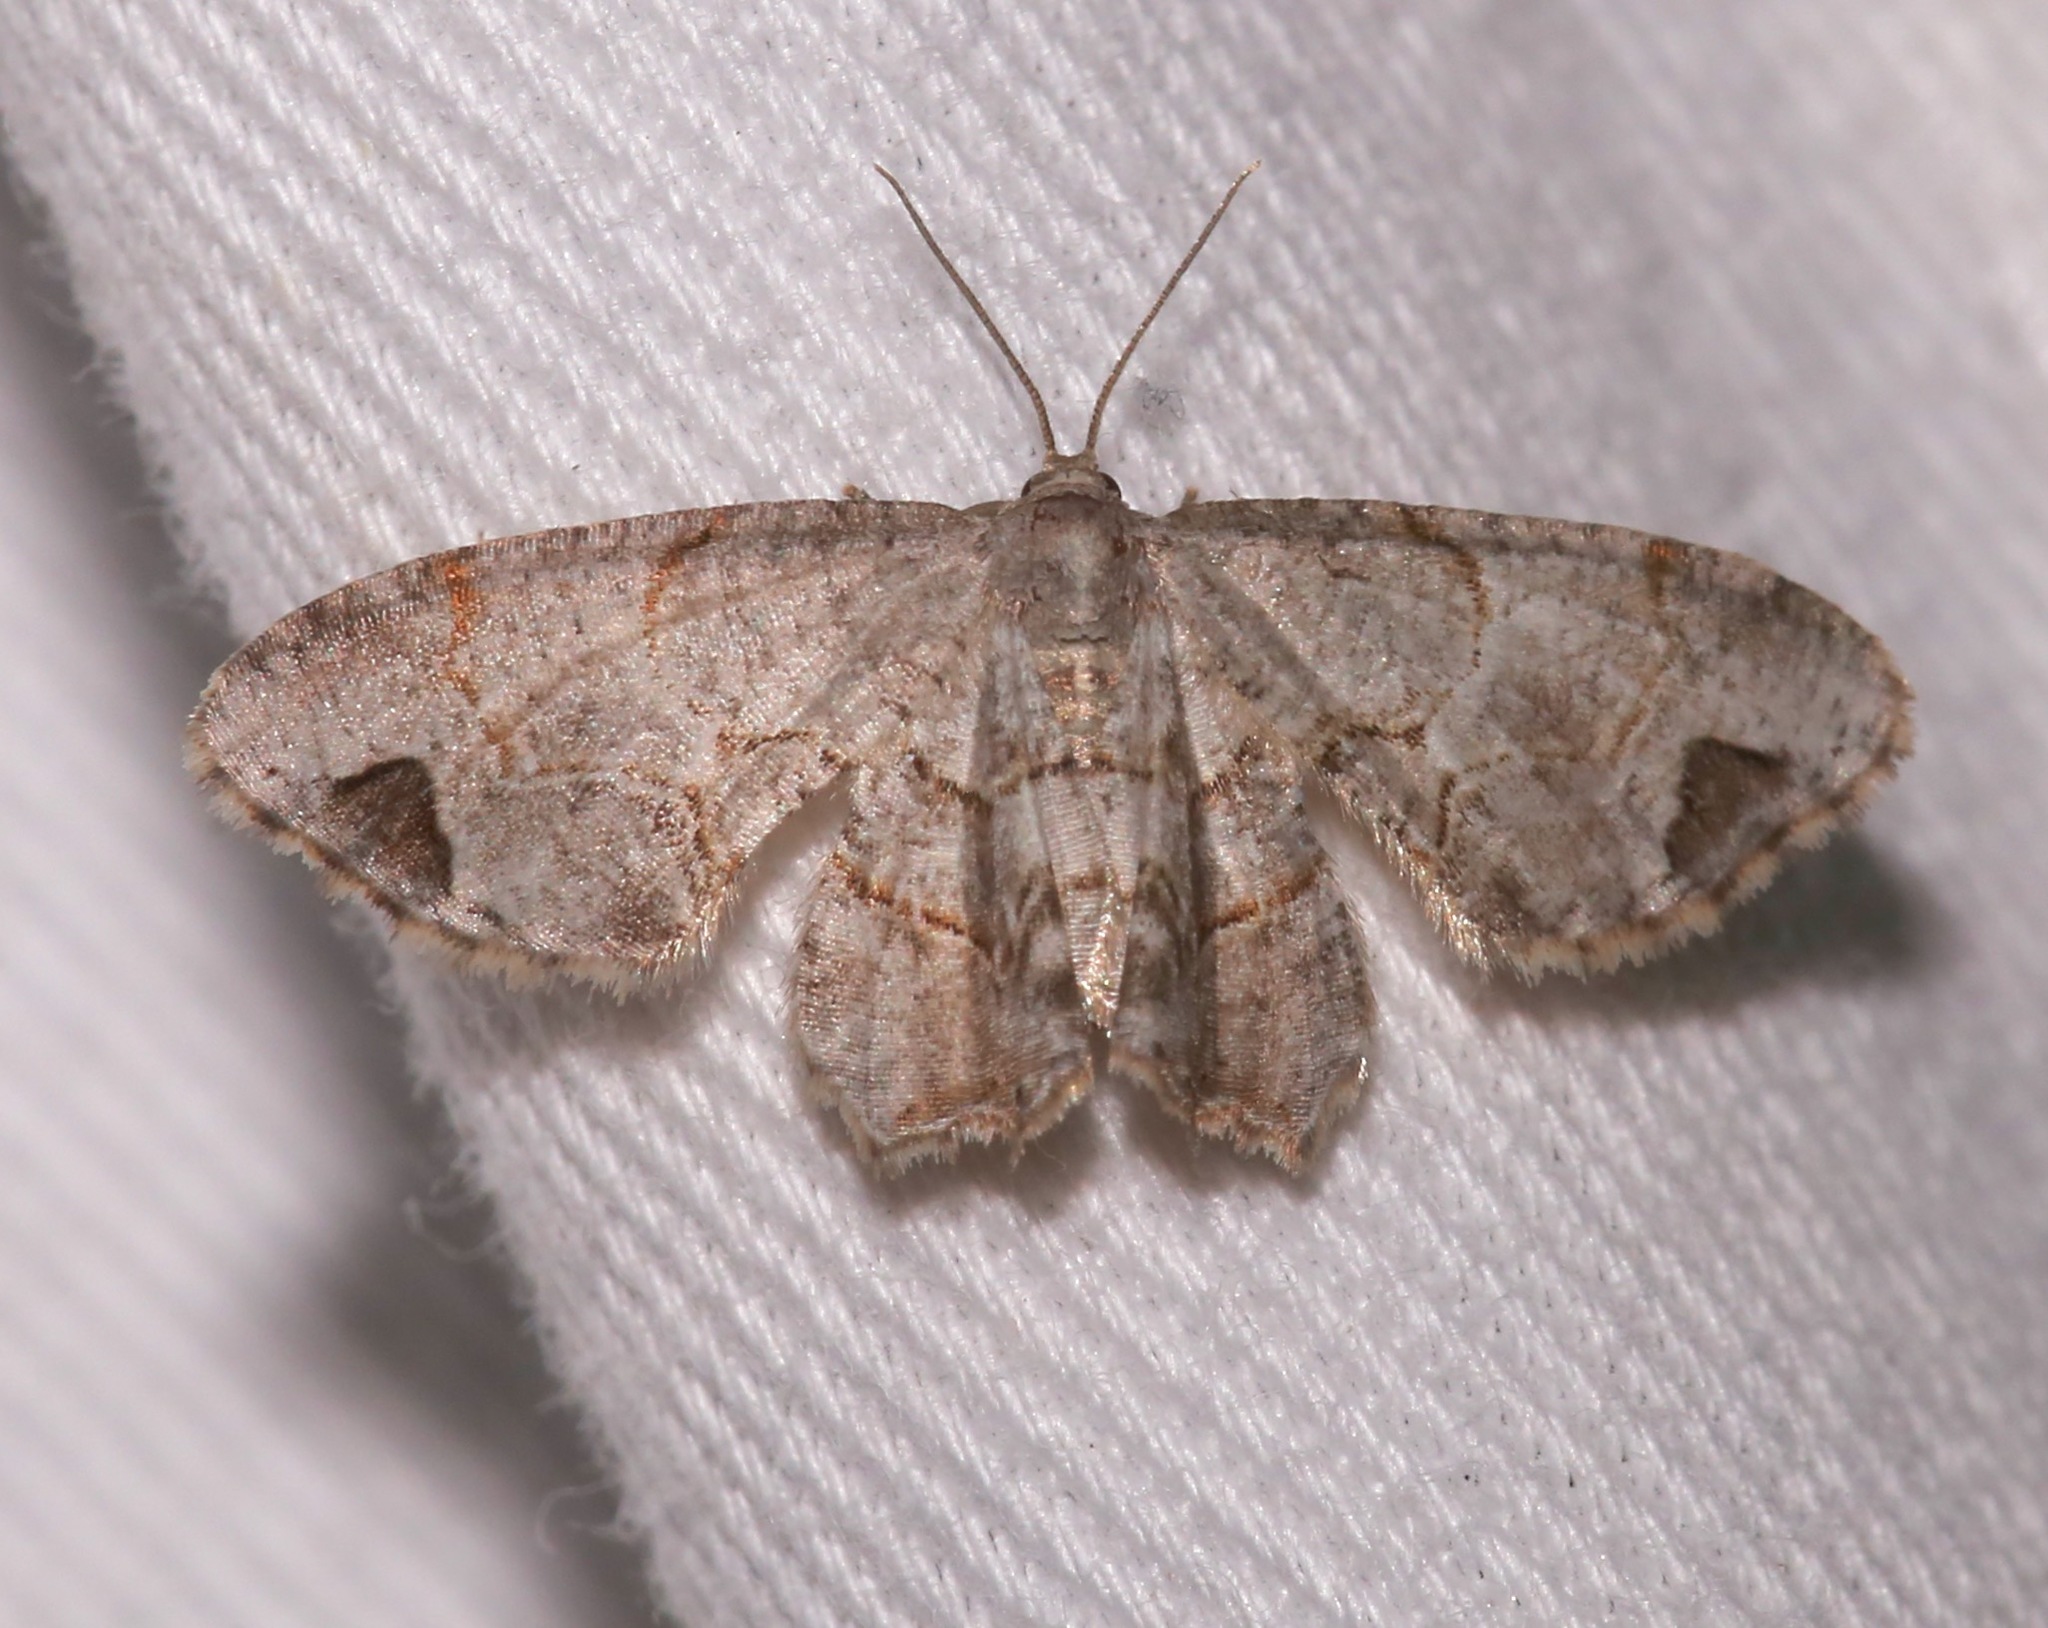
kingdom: Animalia
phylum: Arthropoda
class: Insecta
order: Lepidoptera
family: Uraniidae
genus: Epiplema
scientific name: Epiplema Callizzia amorata
